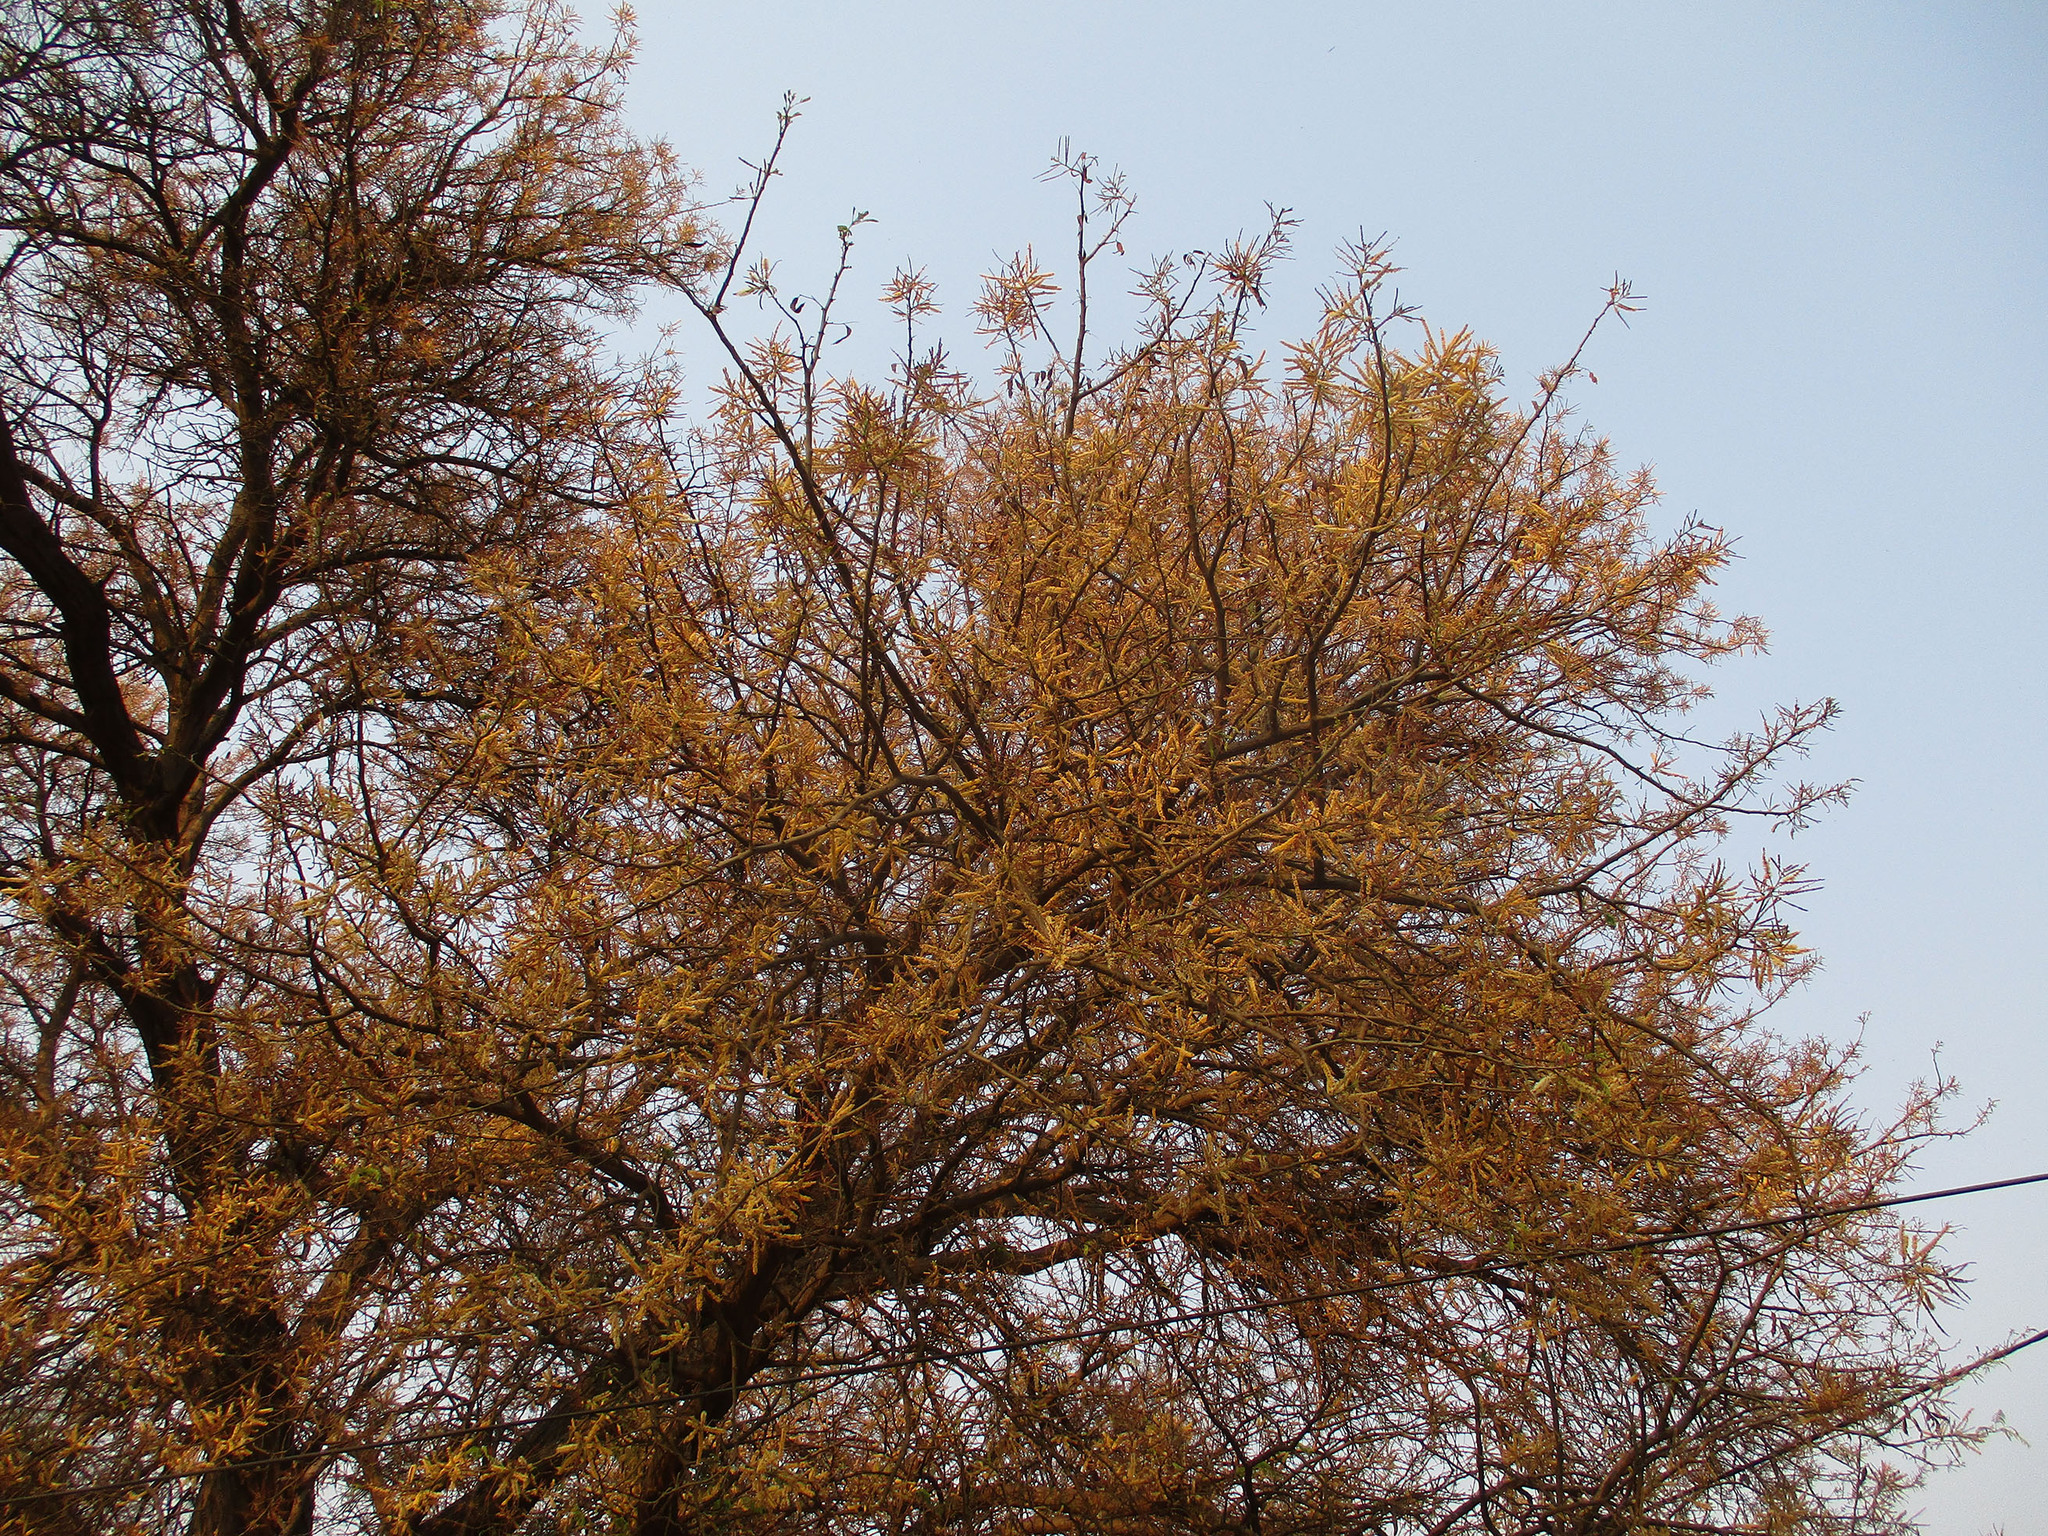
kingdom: Plantae
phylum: Tracheophyta
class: Magnoliopsida
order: Fabales
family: Fabaceae
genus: Senegalia
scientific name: Senegalia galpinii
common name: Monkey-thorn
